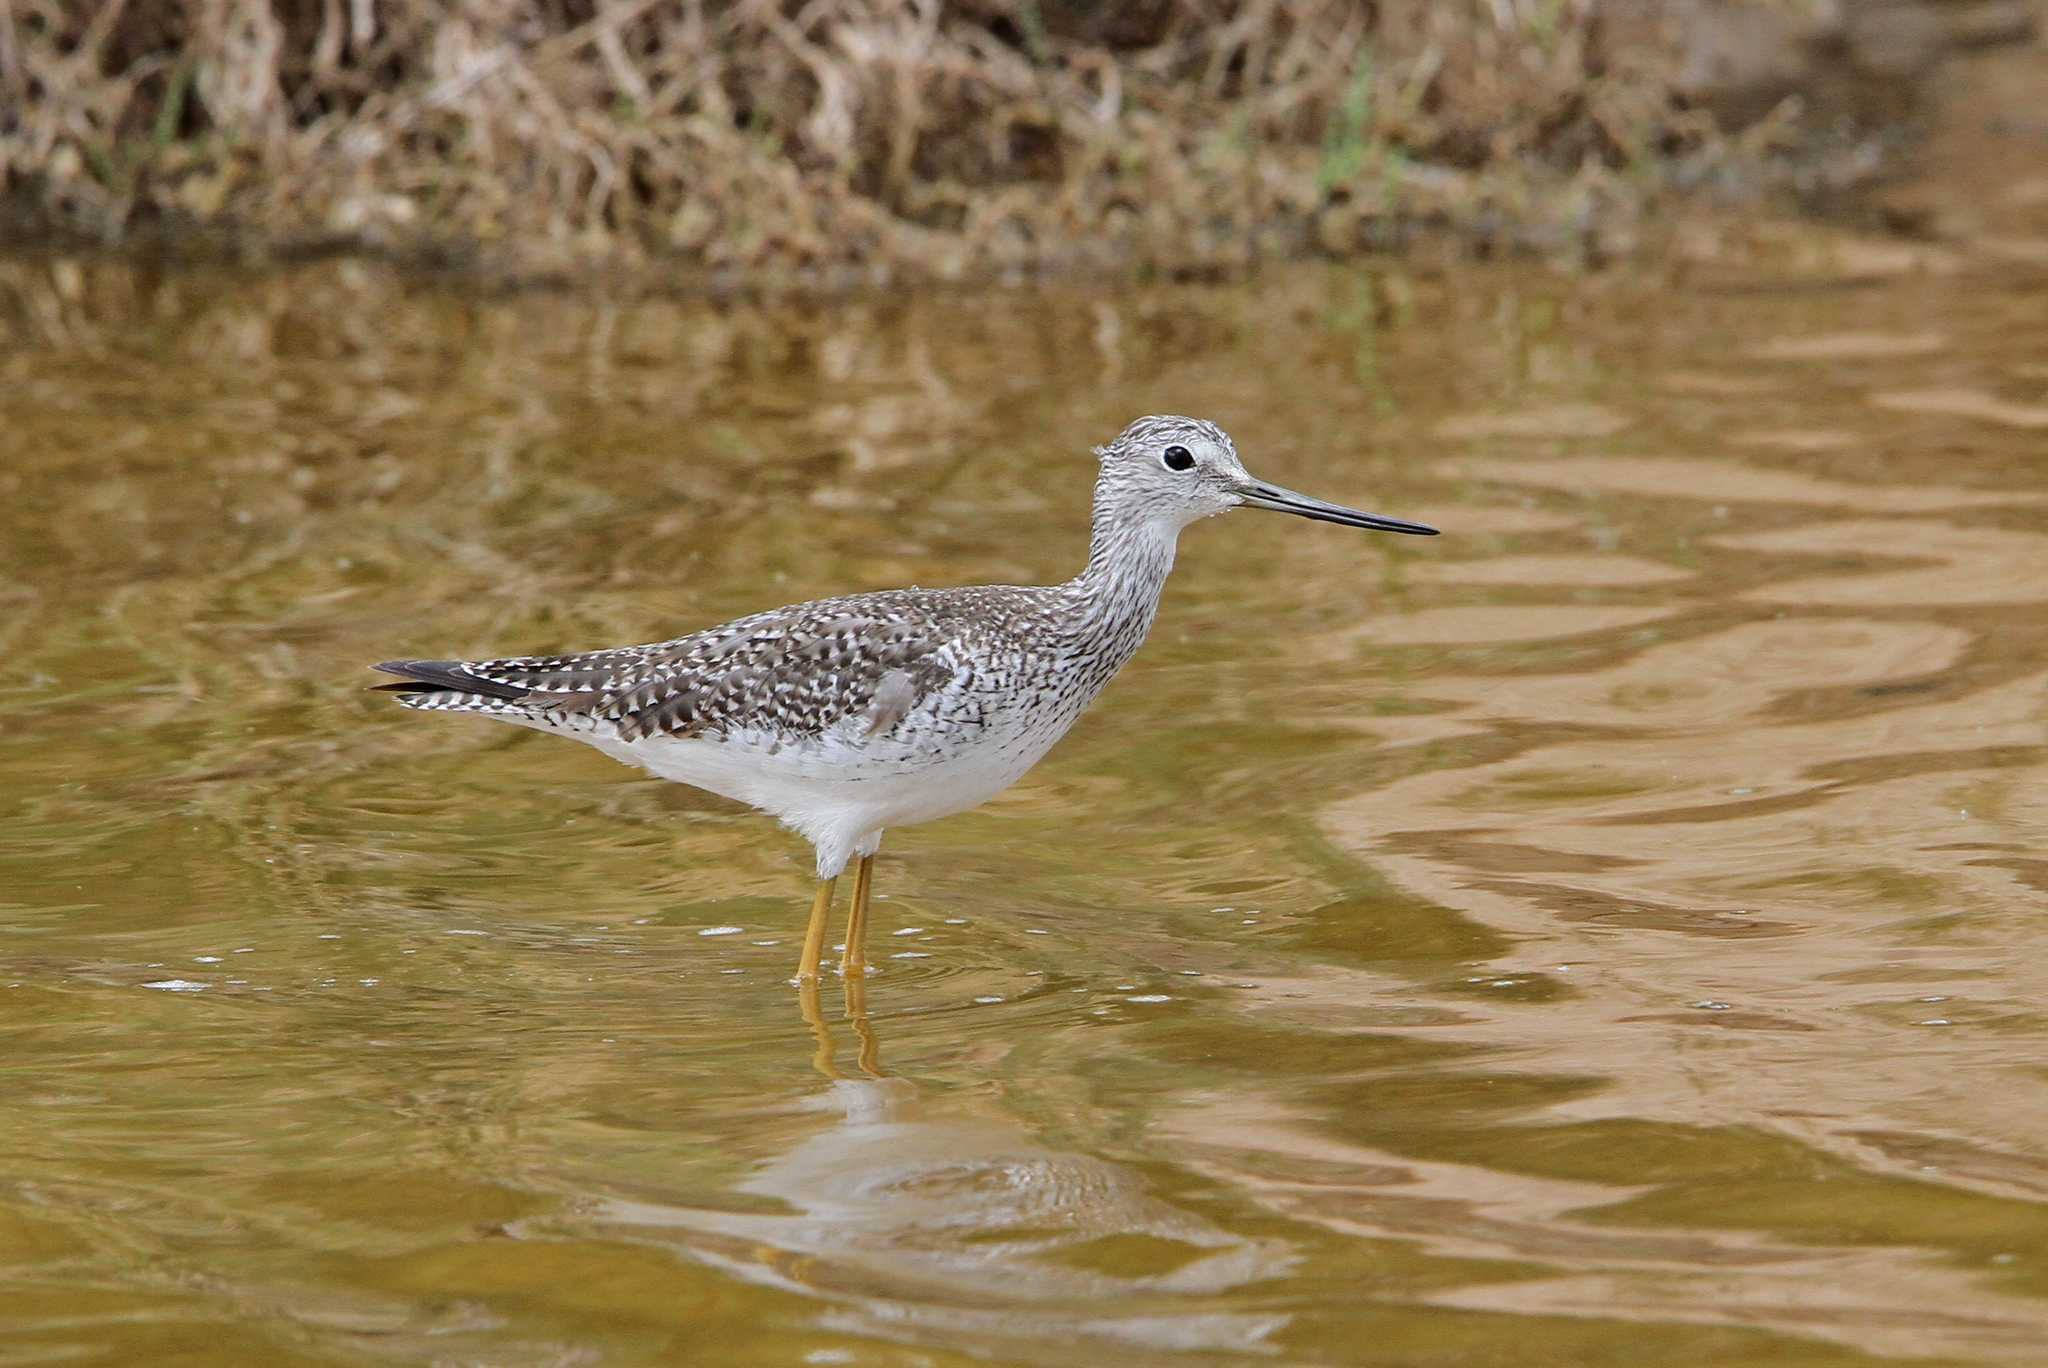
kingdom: Animalia
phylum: Chordata
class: Aves
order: Charadriiformes
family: Scolopacidae
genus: Tringa
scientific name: Tringa melanoleuca
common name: Greater yellowlegs
